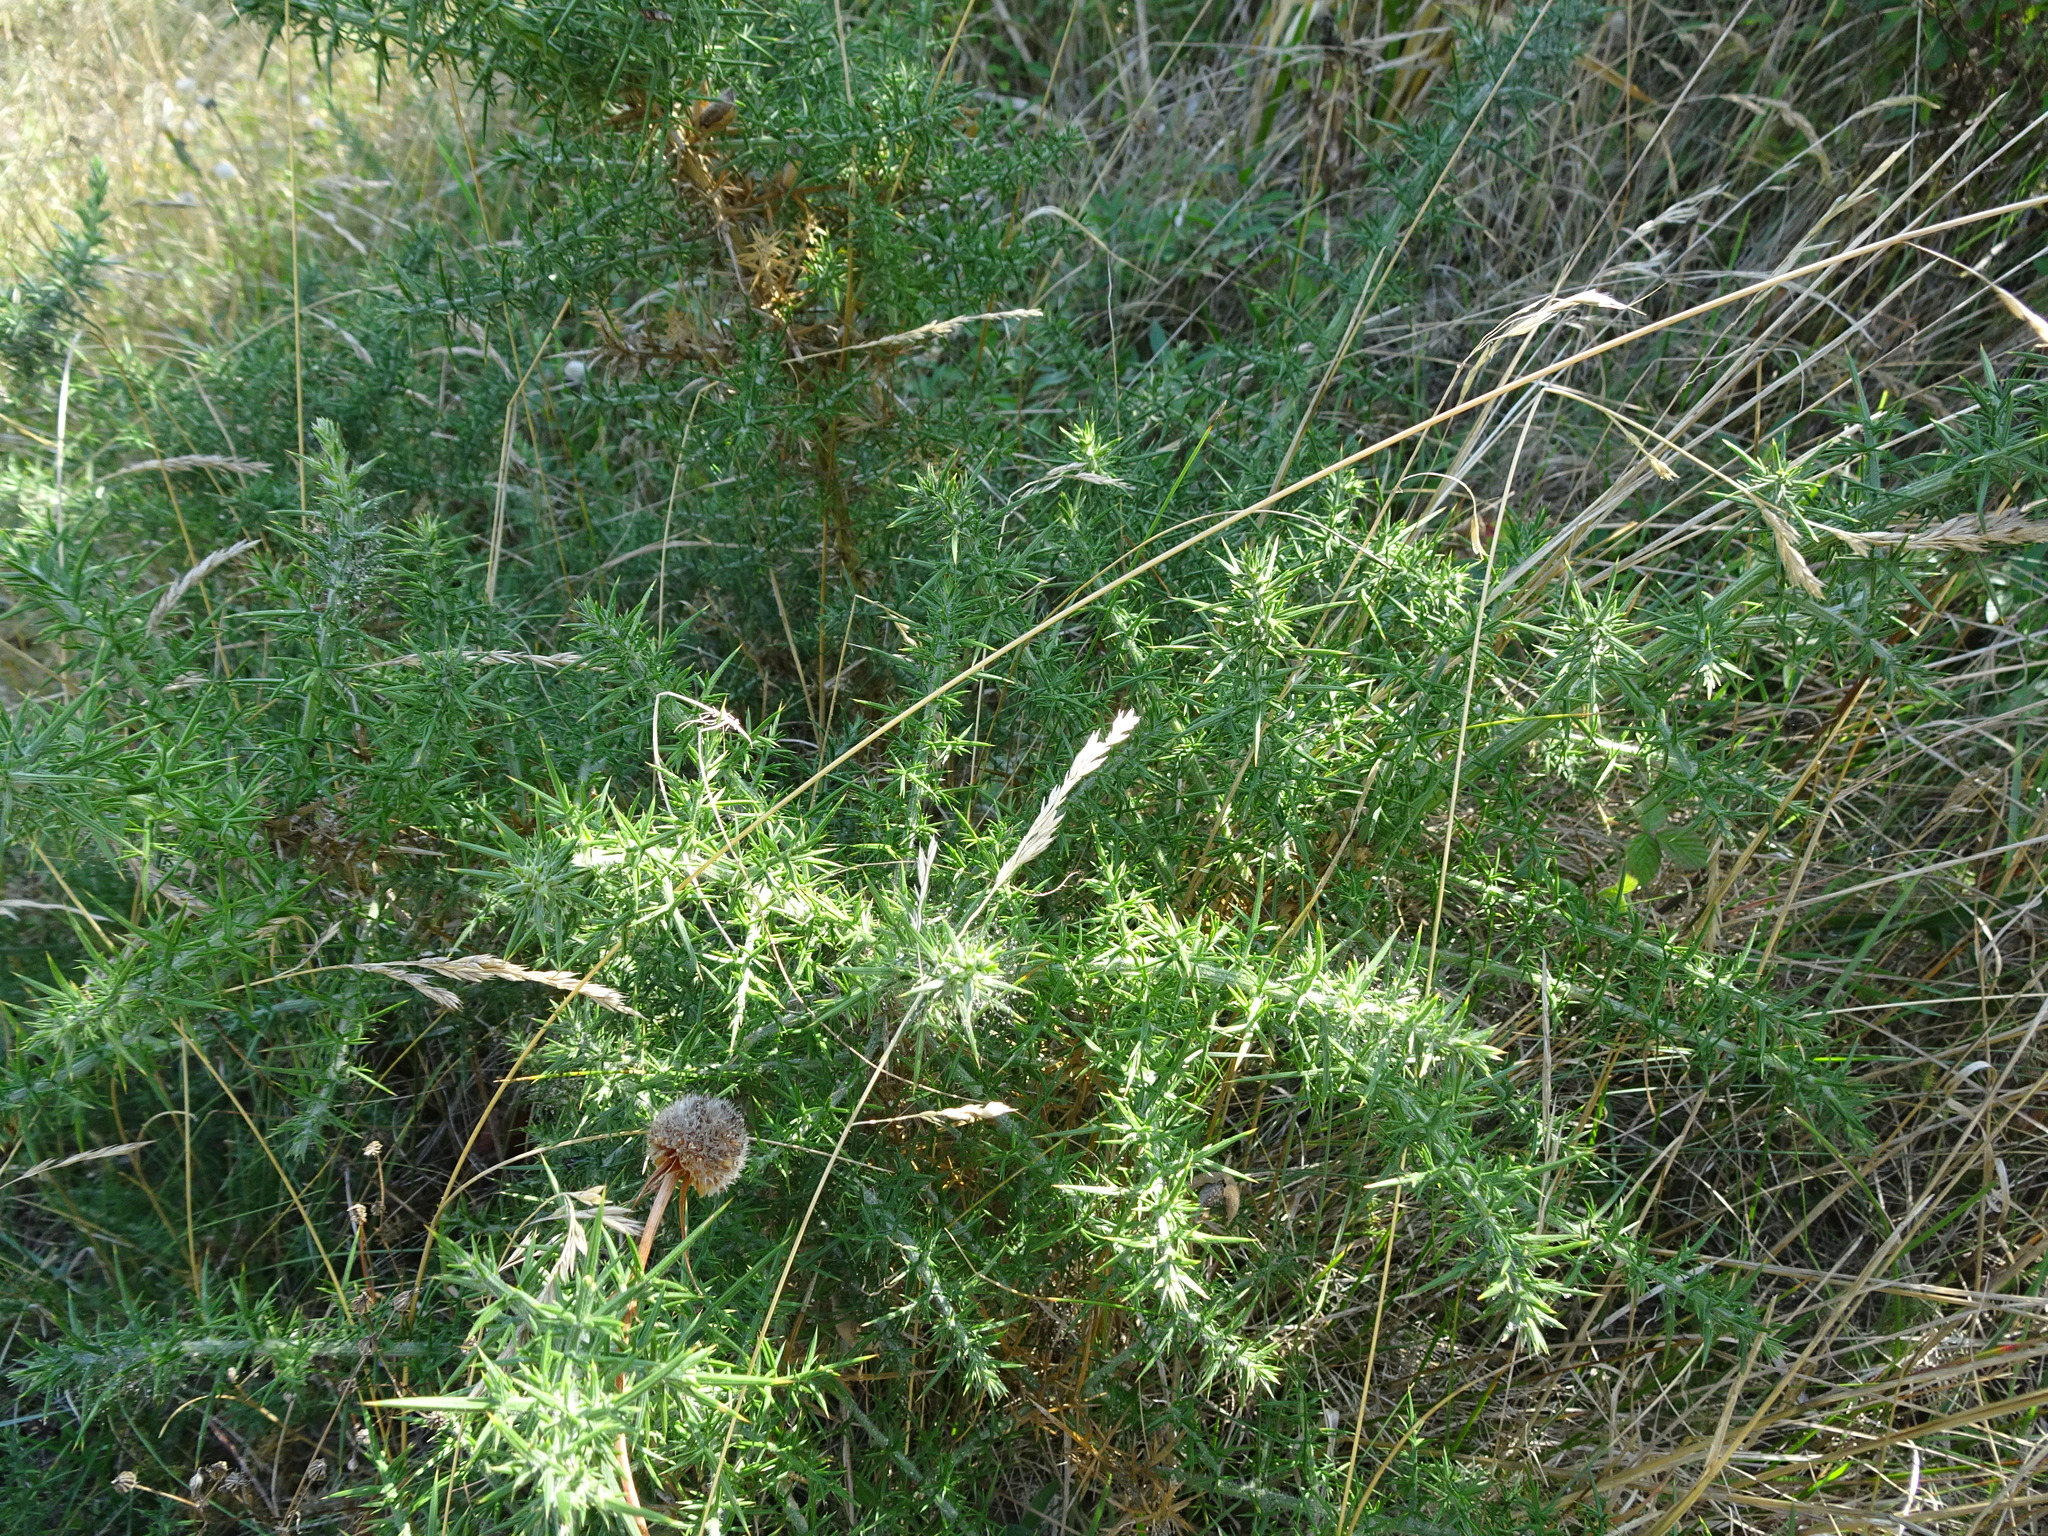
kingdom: Plantae
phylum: Tracheophyta
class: Magnoliopsida
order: Fabales
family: Fabaceae
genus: Ulex
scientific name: Ulex europaeus
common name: Common gorse
